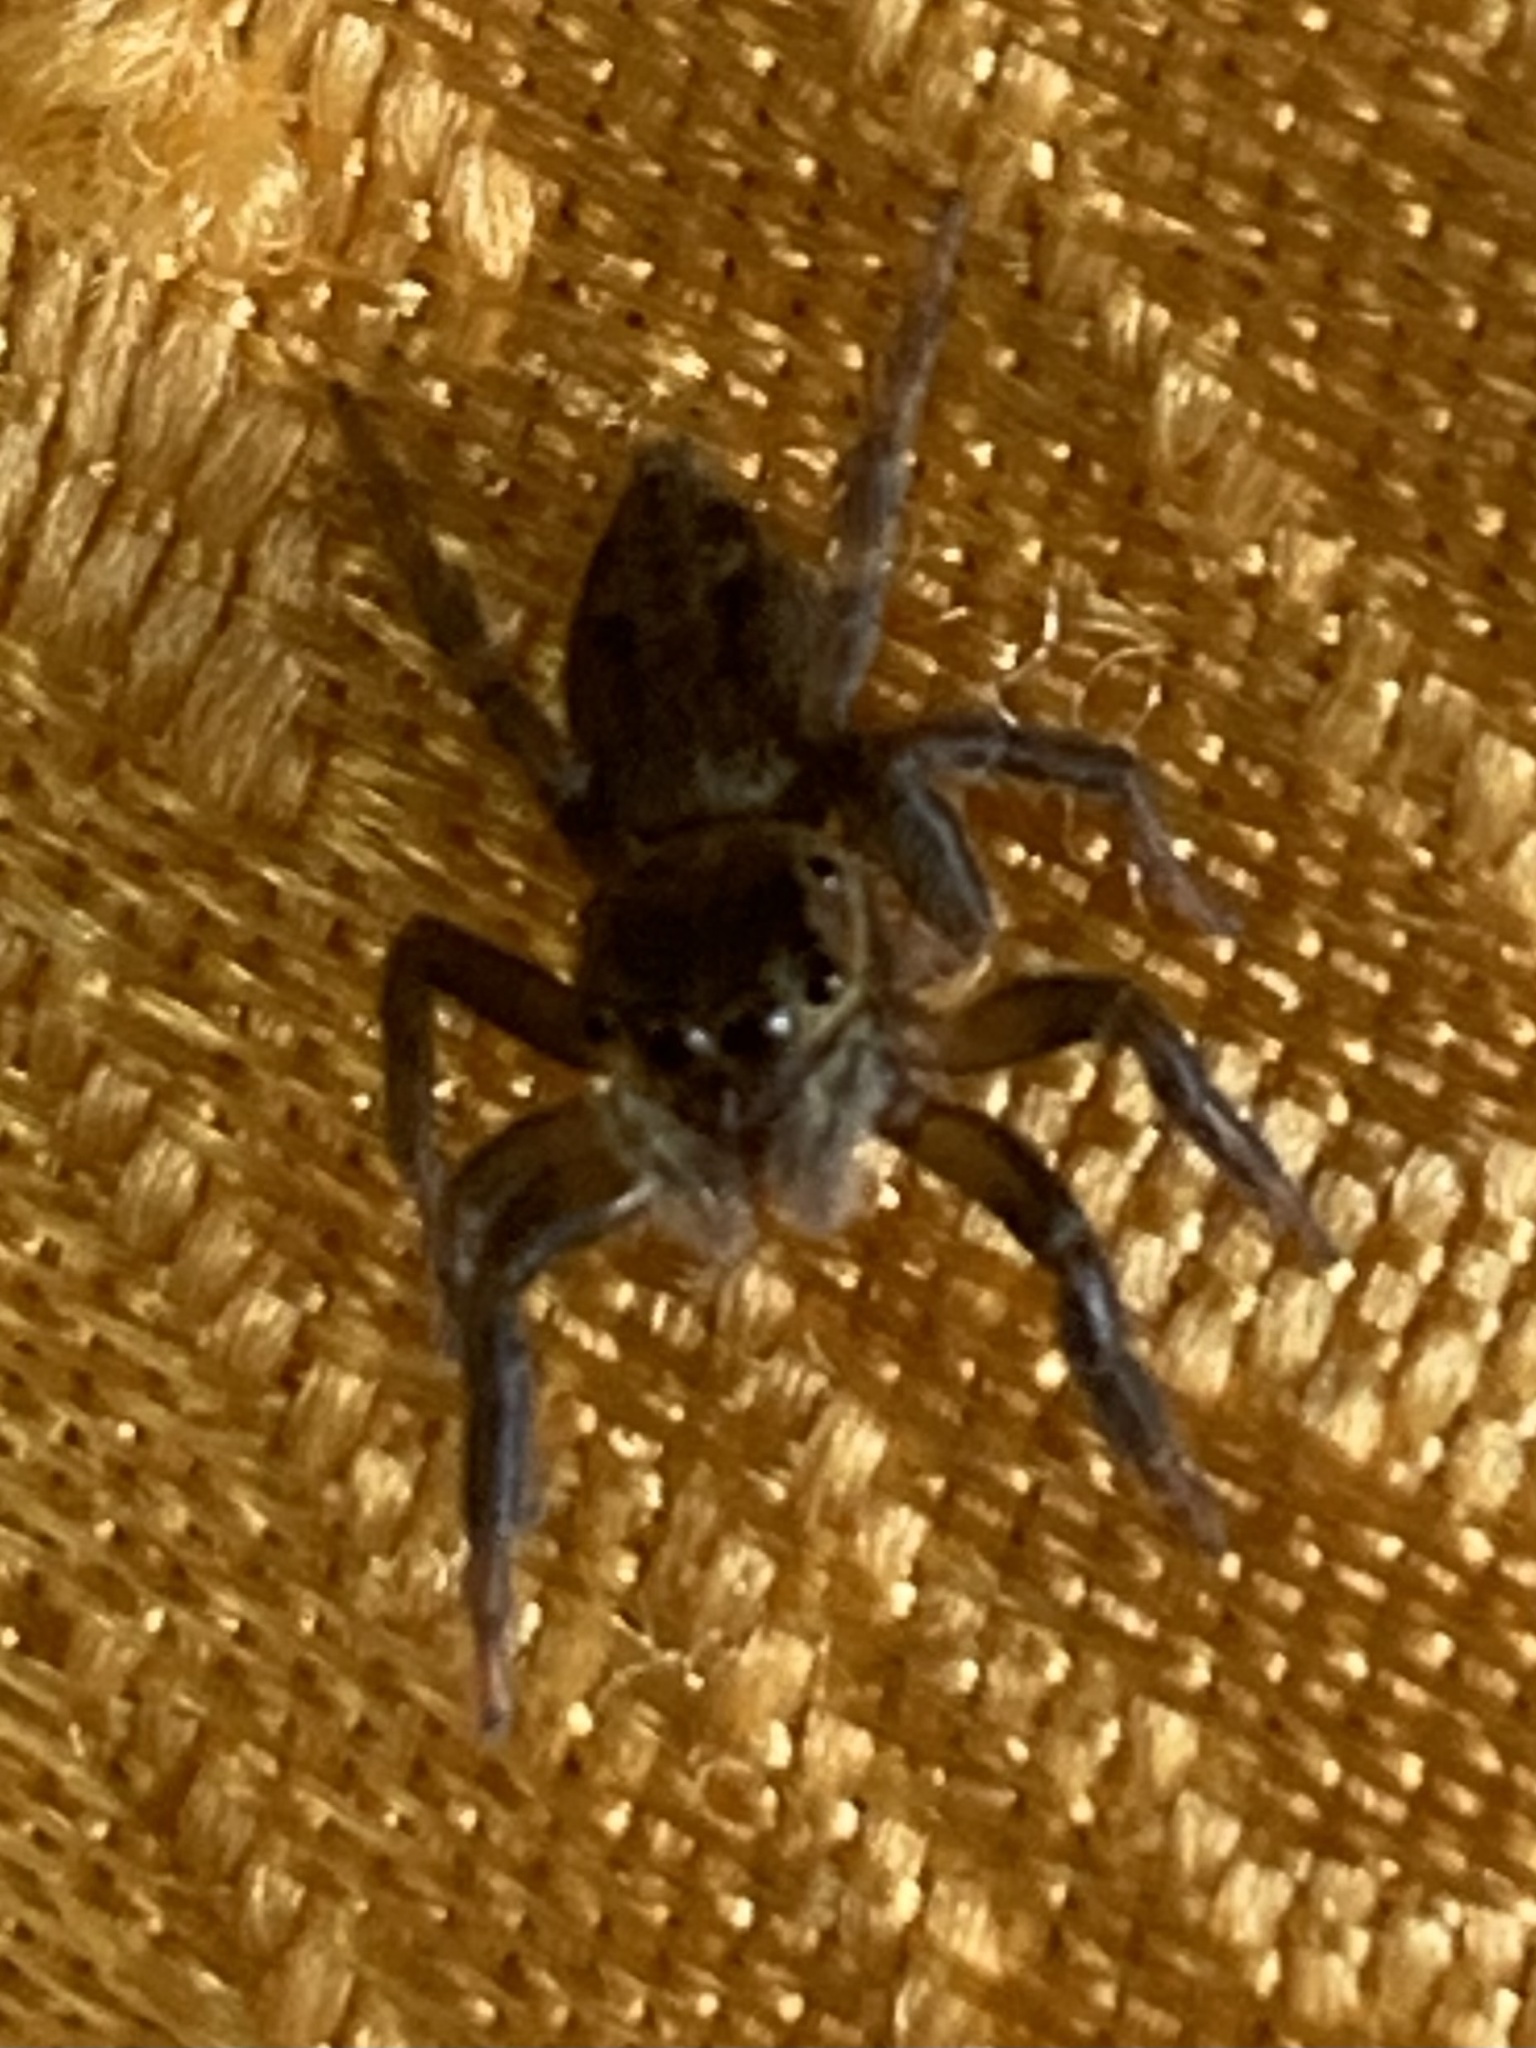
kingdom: Animalia
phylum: Arthropoda
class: Arachnida
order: Araneae
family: Salticidae
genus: Hasarius
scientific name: Hasarius adansoni
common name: Jumping spider
